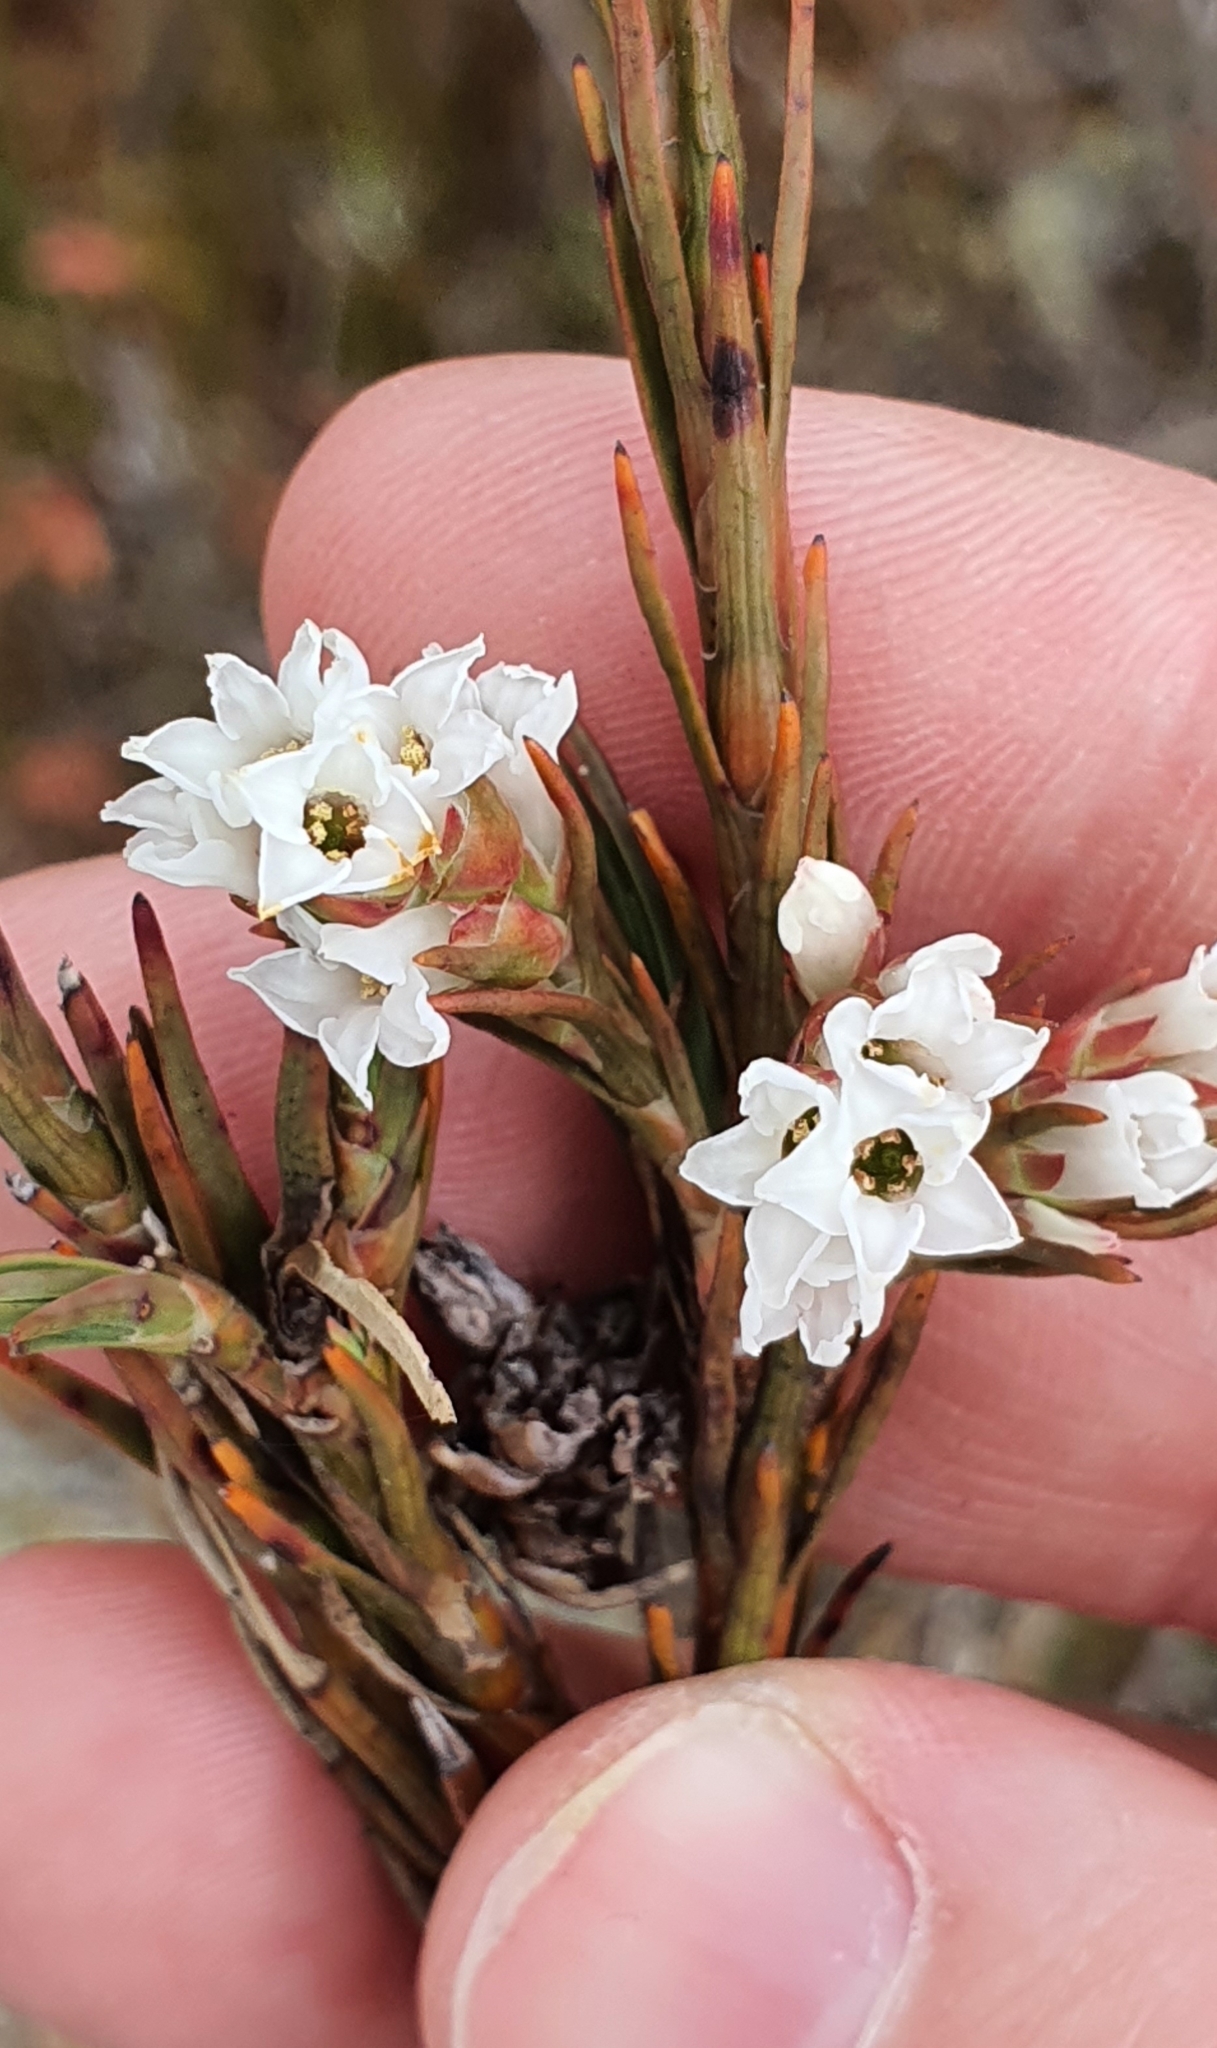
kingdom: Plantae
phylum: Tracheophyta
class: Magnoliopsida
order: Ericales
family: Ericaceae
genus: Dracophyllum
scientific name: Dracophyllum oliveri
